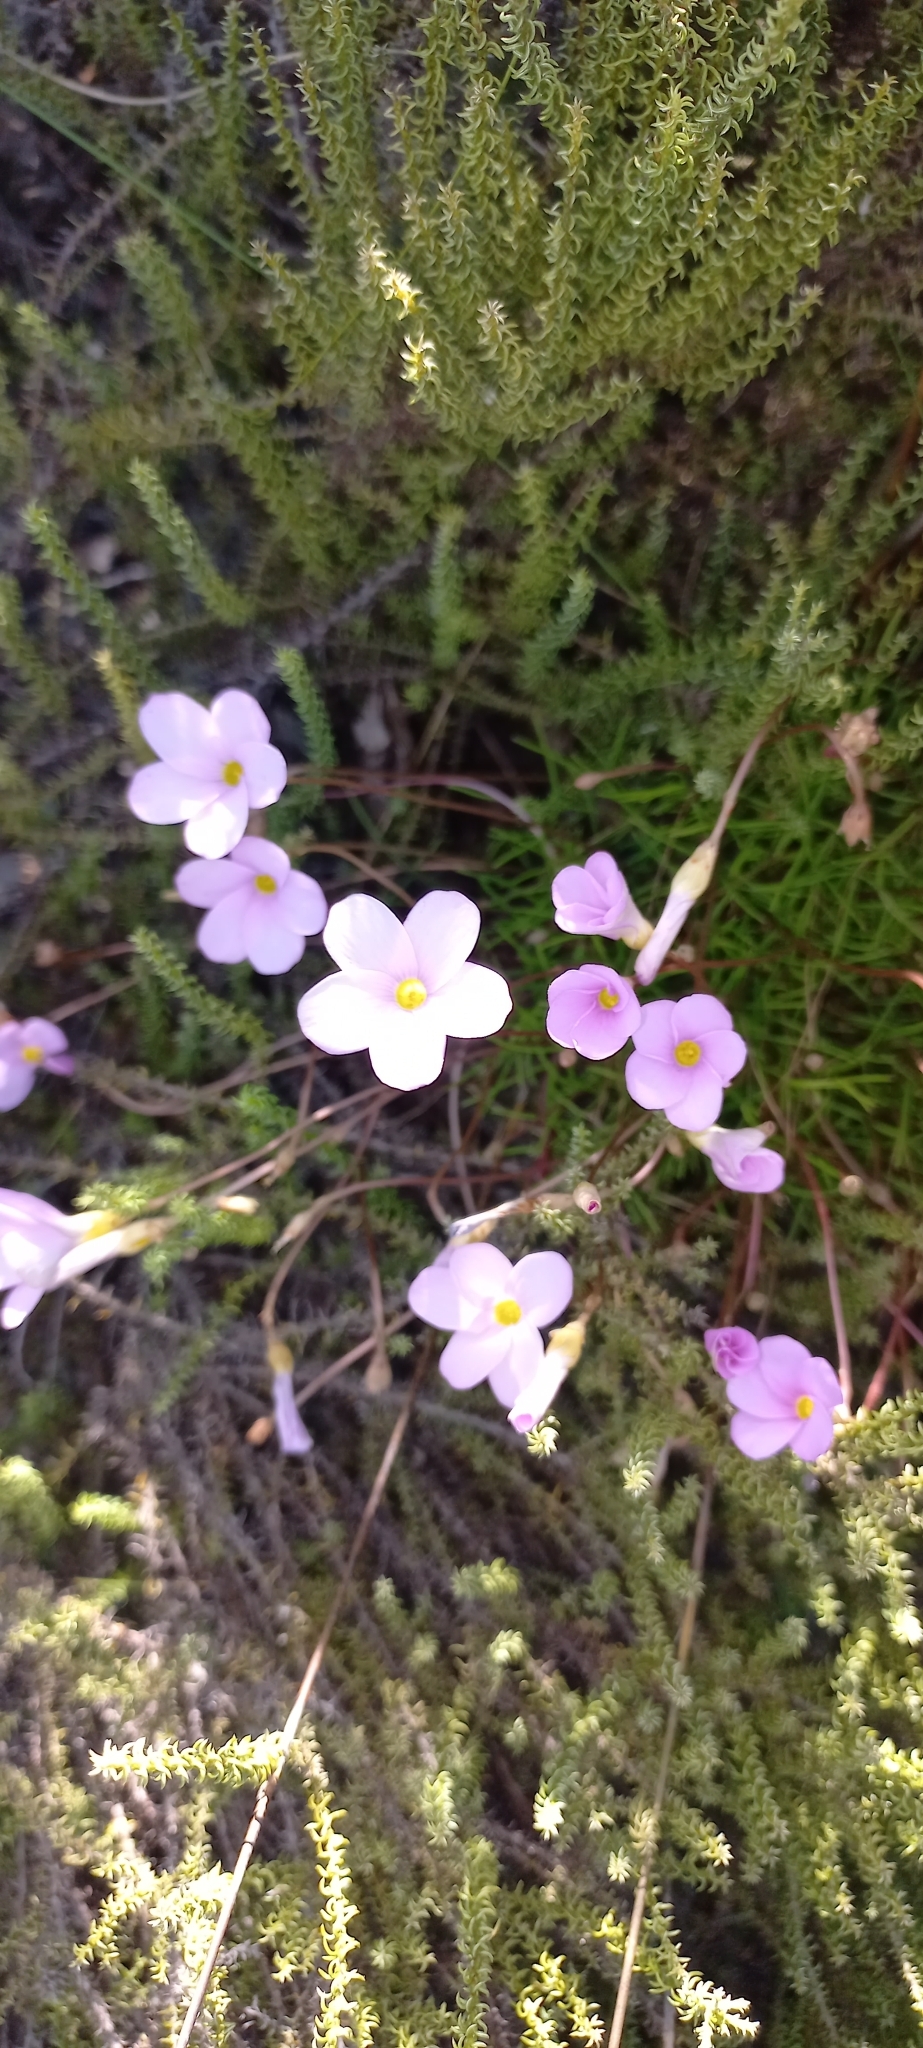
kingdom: Plantae
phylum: Tracheophyta
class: Magnoliopsida
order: Oxalidales
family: Oxalidaceae
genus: Oxalis
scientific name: Oxalis polyphylla
